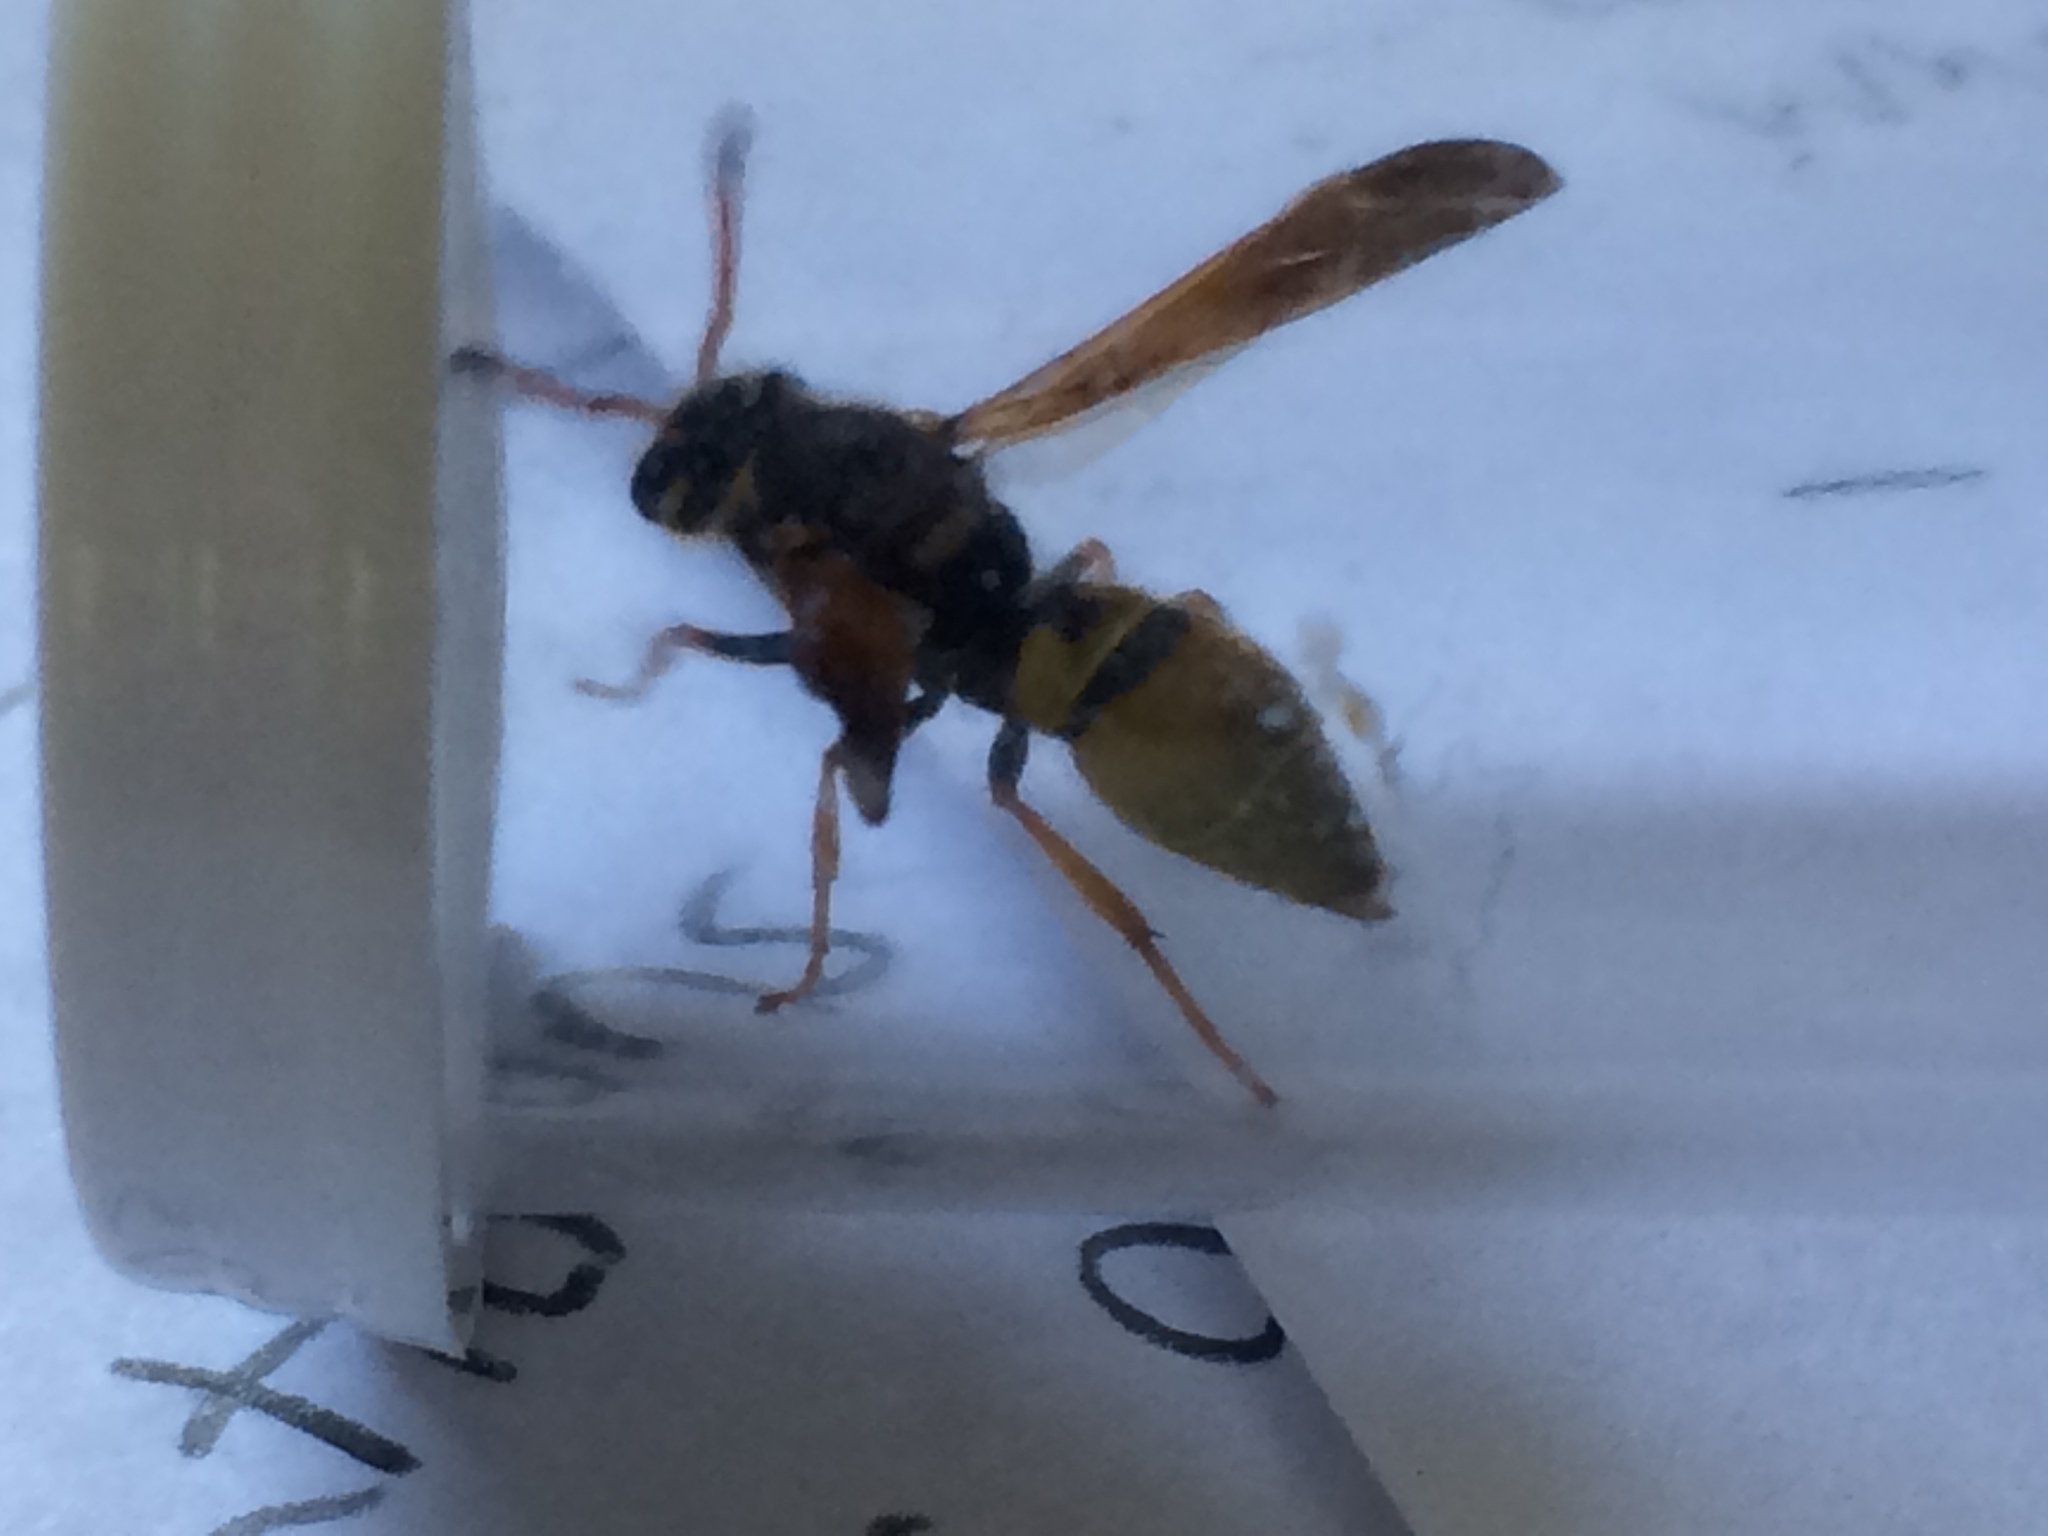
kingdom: Animalia
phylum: Arthropoda
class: Insecta
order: Hymenoptera
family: Vespidae
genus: Ancistrocerus
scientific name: Ancistrocerus
